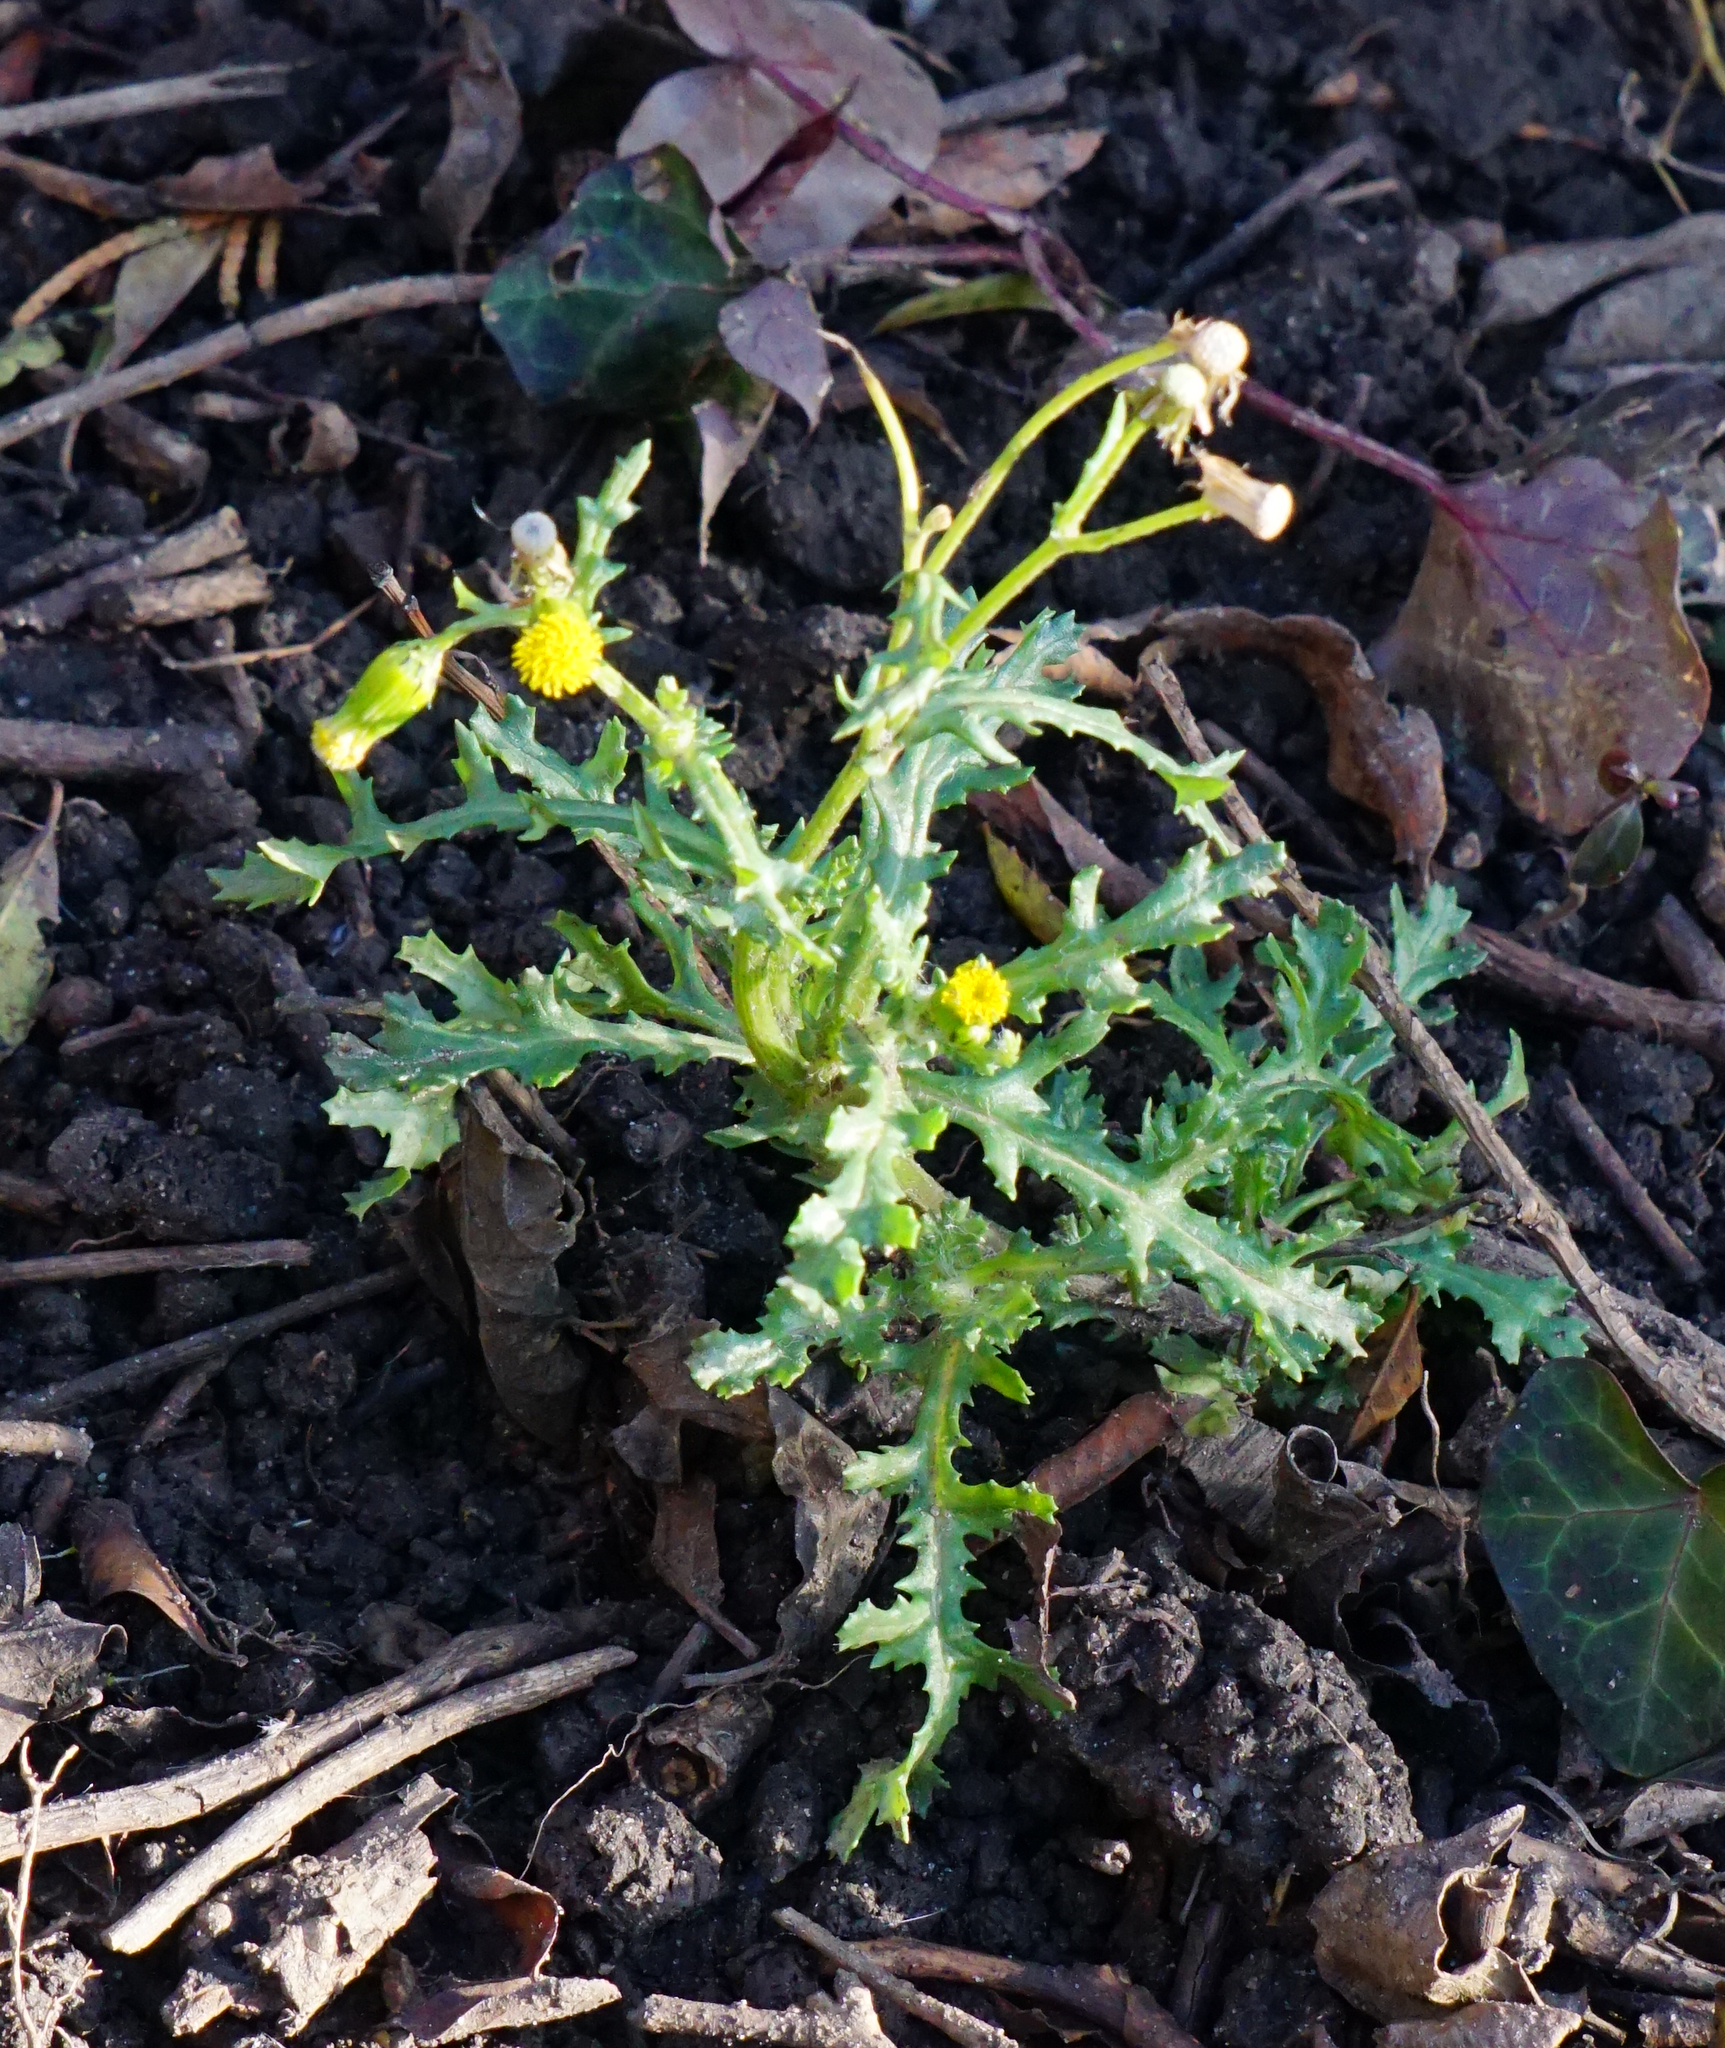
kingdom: Plantae
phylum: Tracheophyta
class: Magnoliopsida
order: Asterales
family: Asteraceae
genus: Senecio
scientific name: Senecio vulgaris
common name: Old-man-in-the-spring
